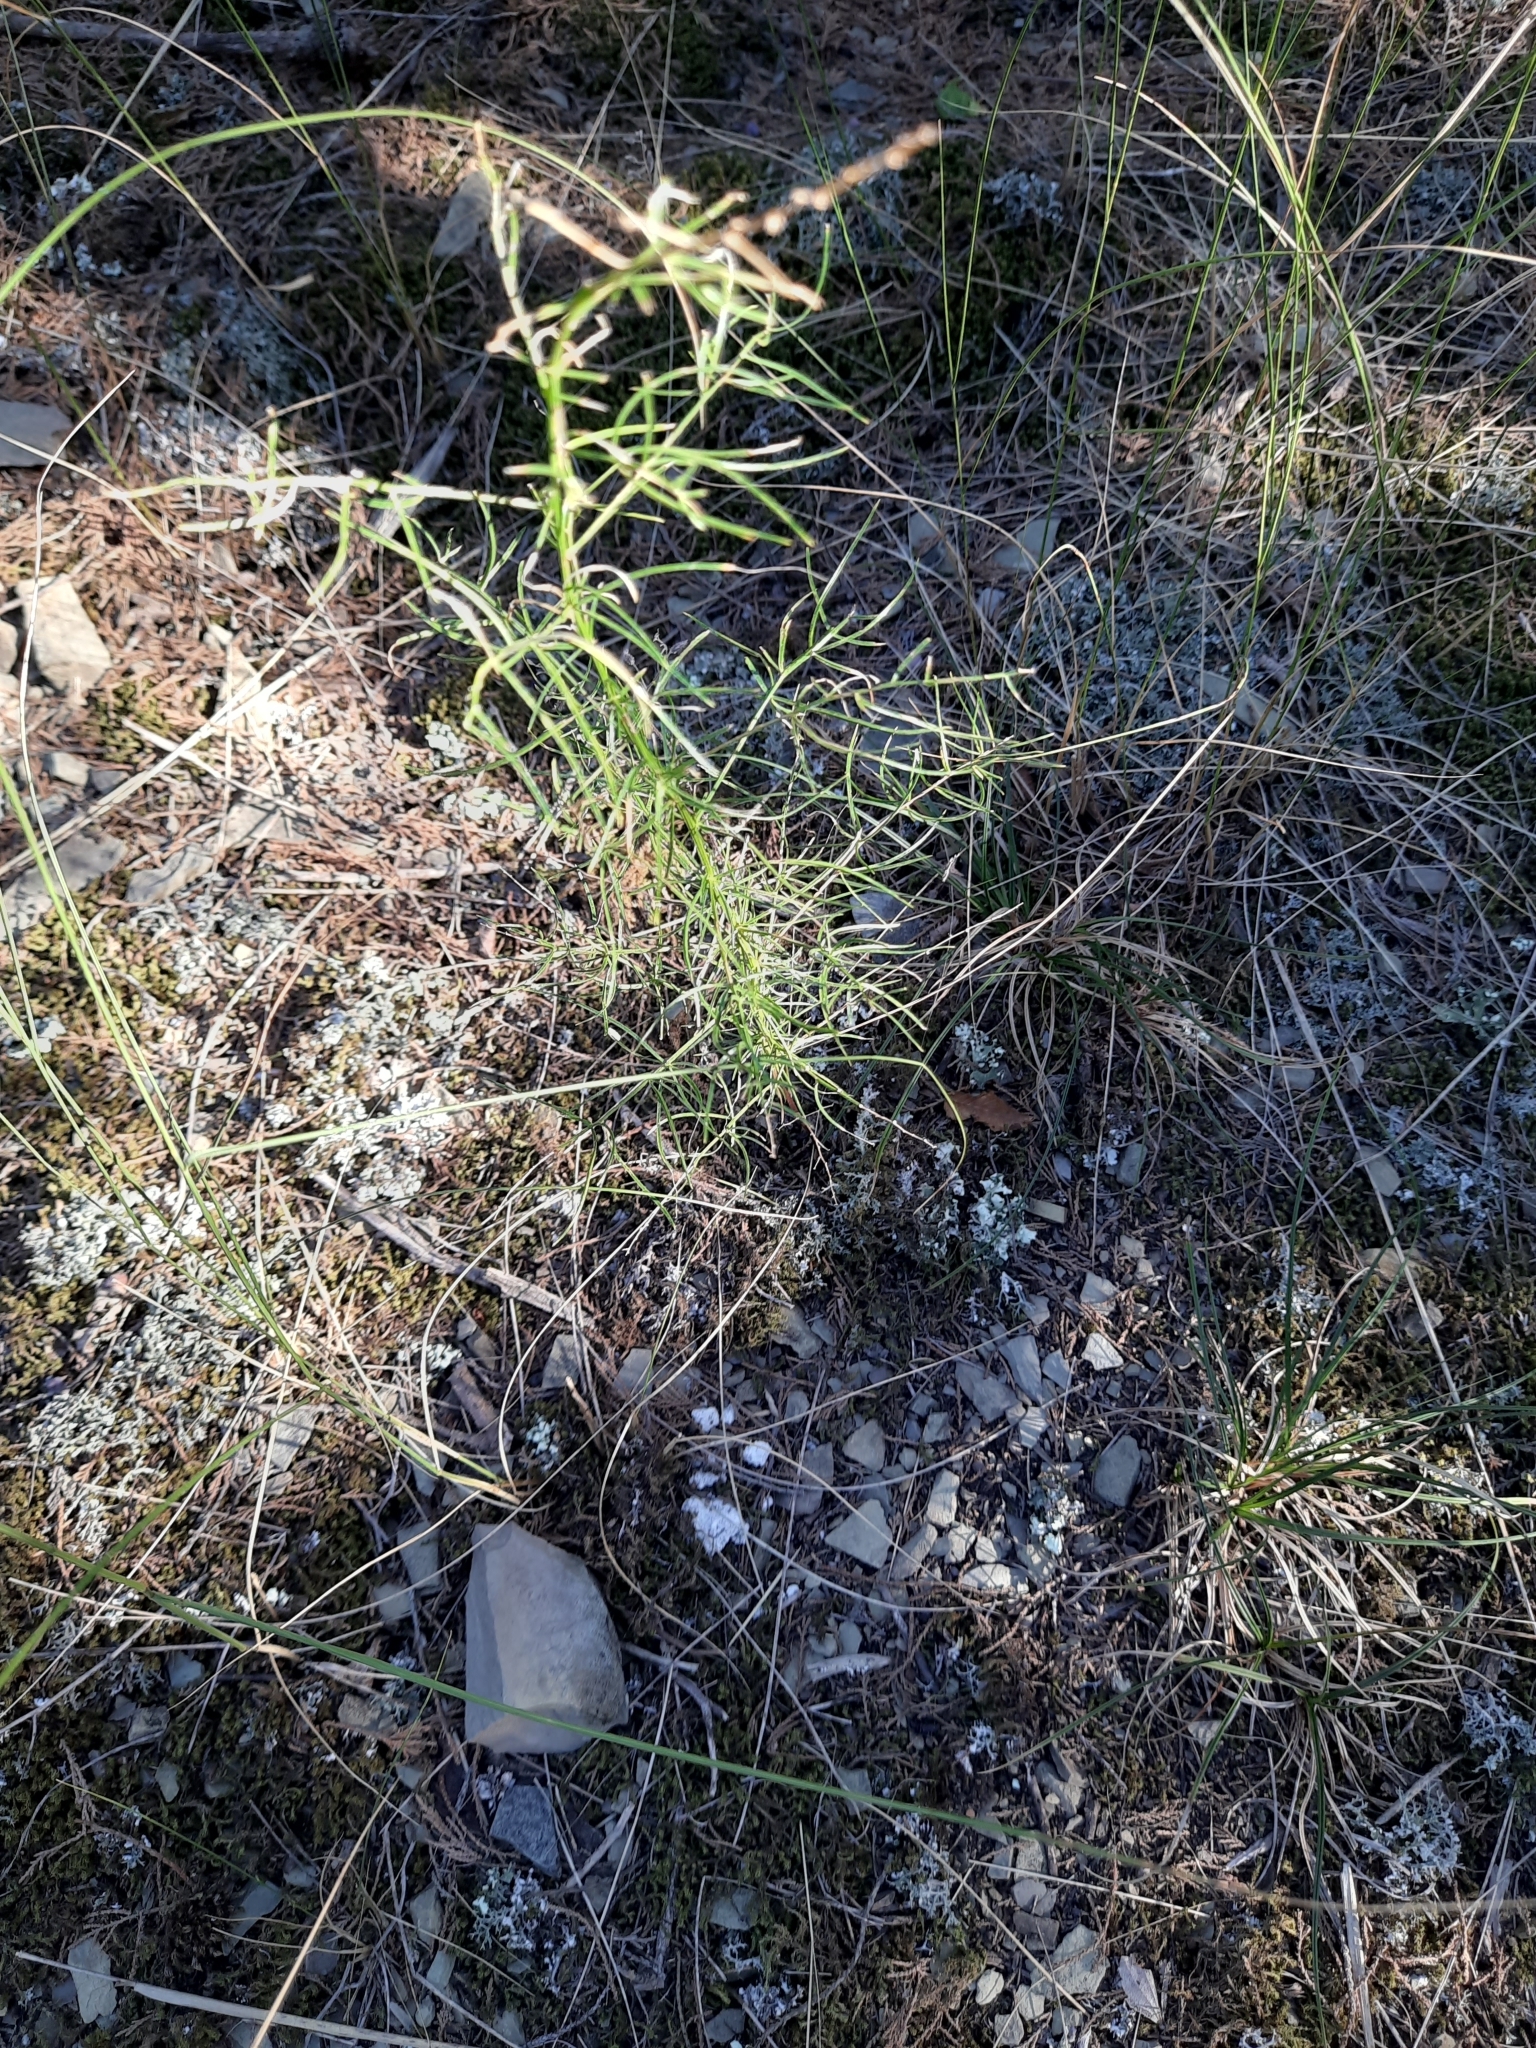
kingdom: Plantae
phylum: Tracheophyta
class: Liliopsida
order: Asparagales
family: Asparagaceae
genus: Asparagus
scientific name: Asparagus verticillatus
